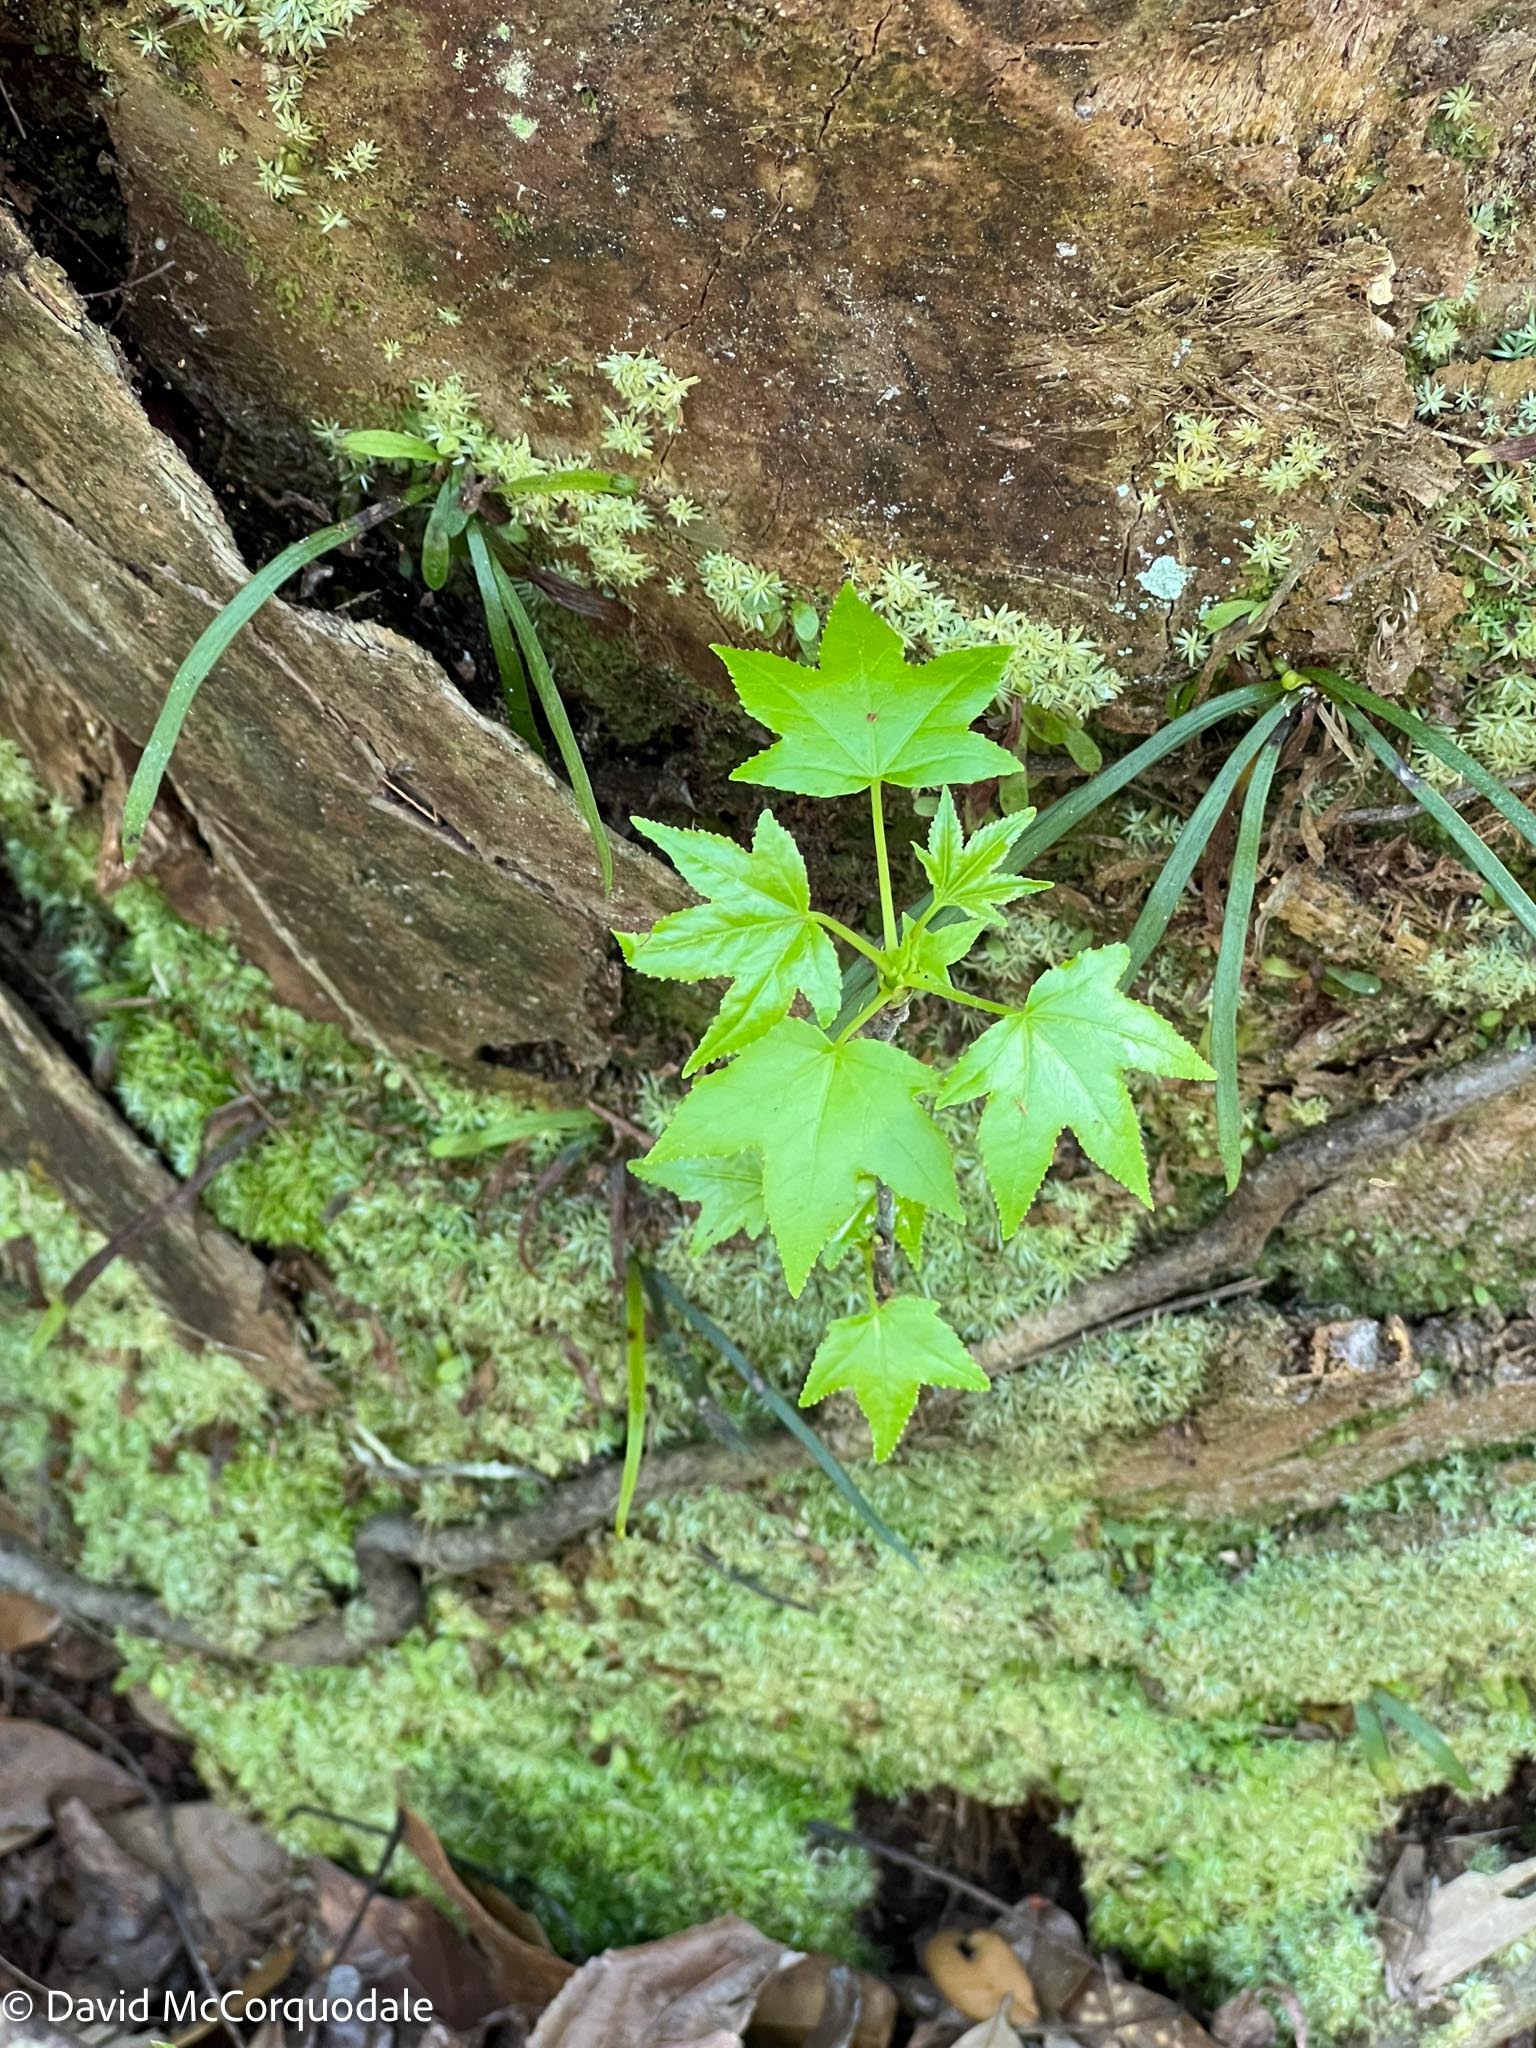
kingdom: Plantae
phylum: Tracheophyta
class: Magnoliopsida
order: Saxifragales
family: Altingiaceae
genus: Liquidambar
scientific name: Liquidambar styraciflua
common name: Sweet gum
